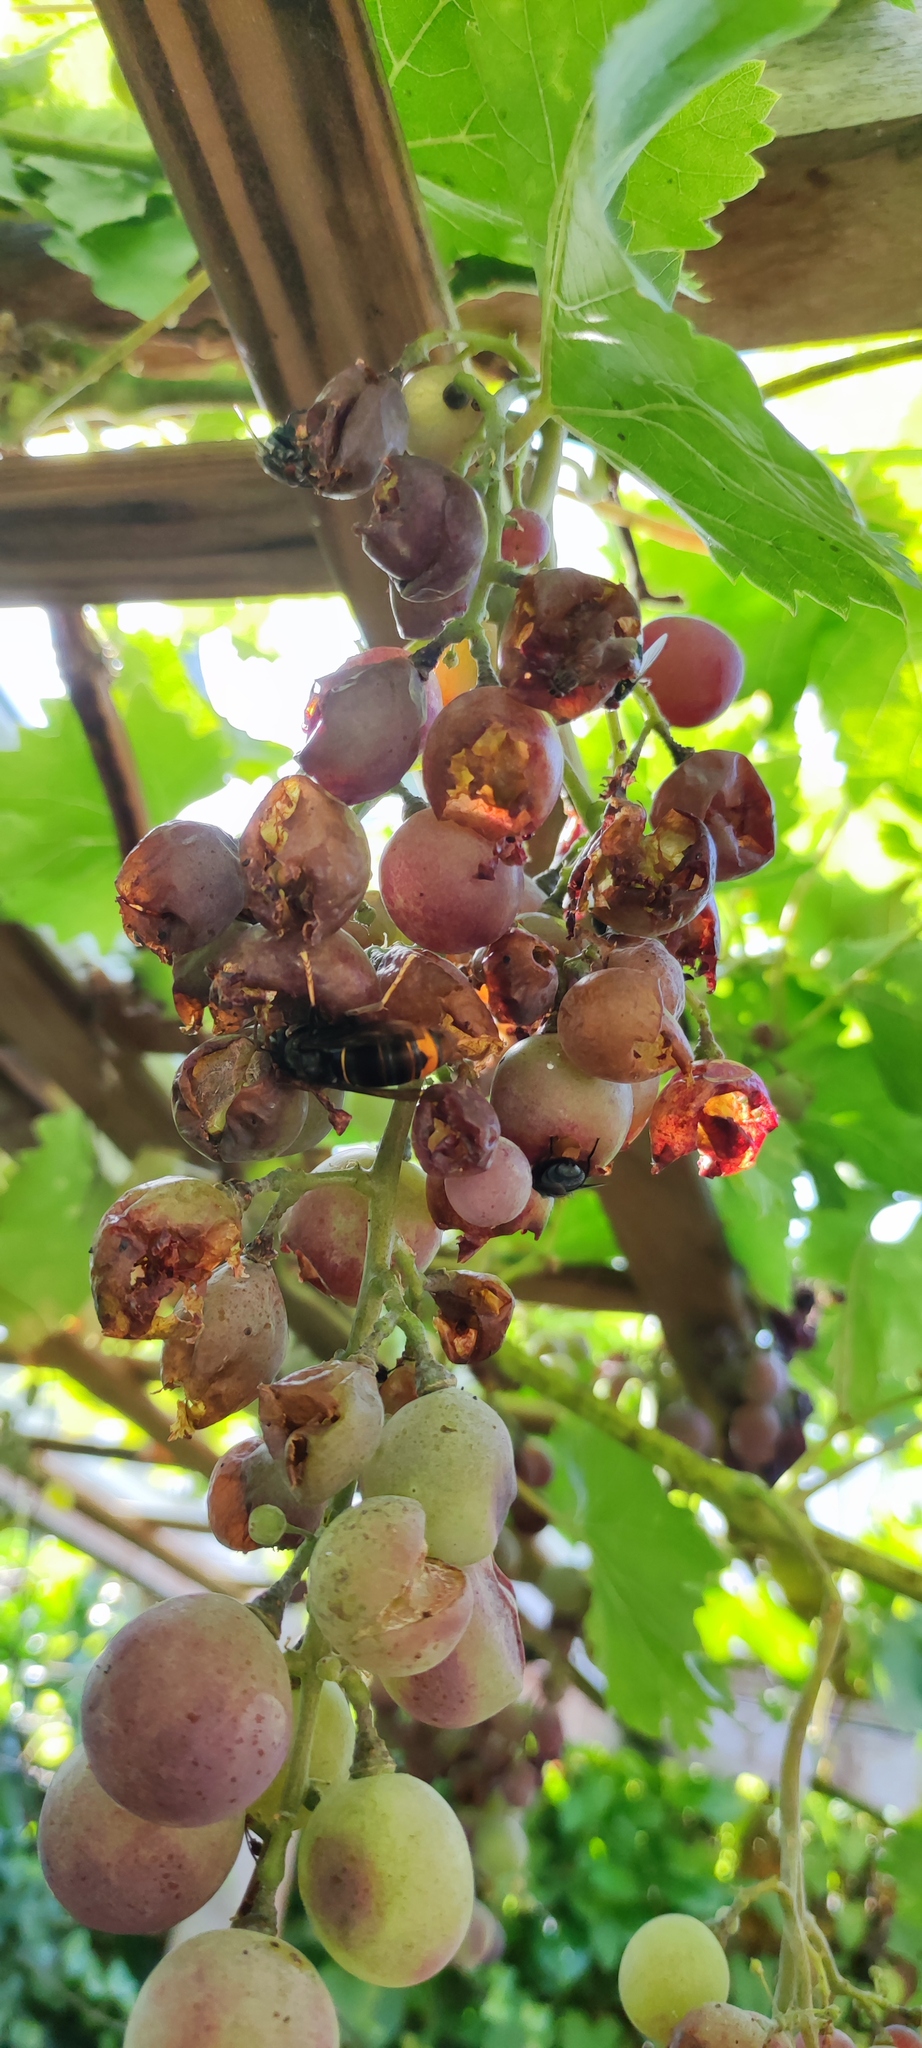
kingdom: Animalia
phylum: Arthropoda
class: Insecta
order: Hymenoptera
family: Vespidae
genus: Vespa
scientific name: Vespa velutina
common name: Asian hornet
